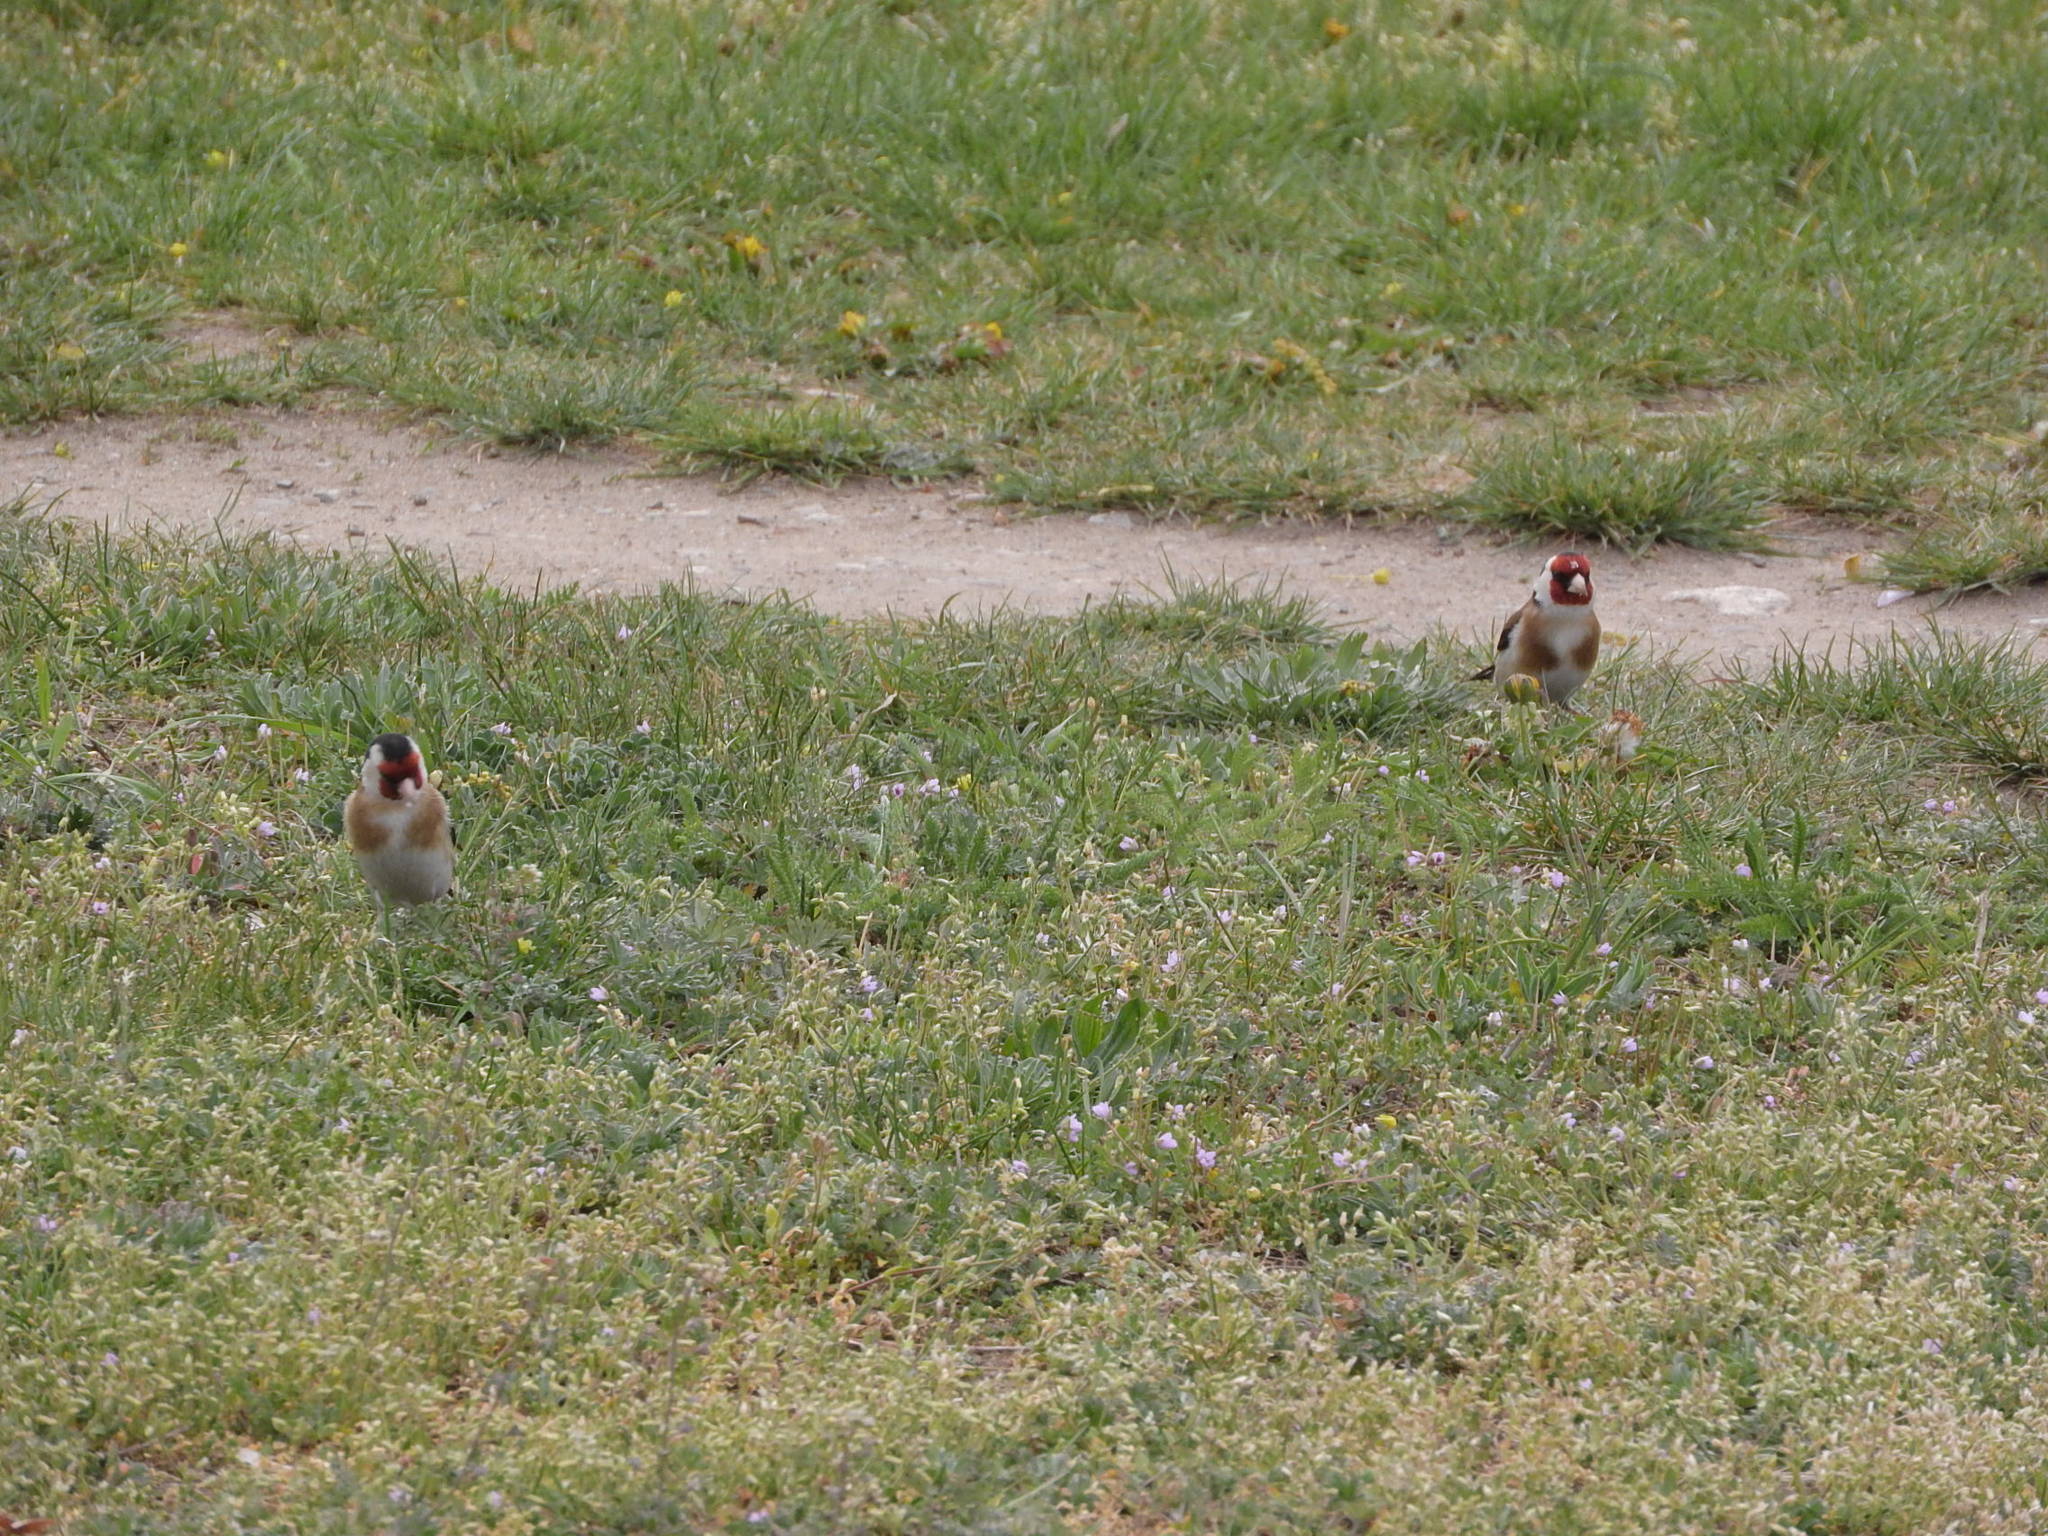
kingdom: Animalia
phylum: Chordata
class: Aves
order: Passeriformes
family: Fringillidae
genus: Carduelis
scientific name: Carduelis carduelis
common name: European goldfinch
